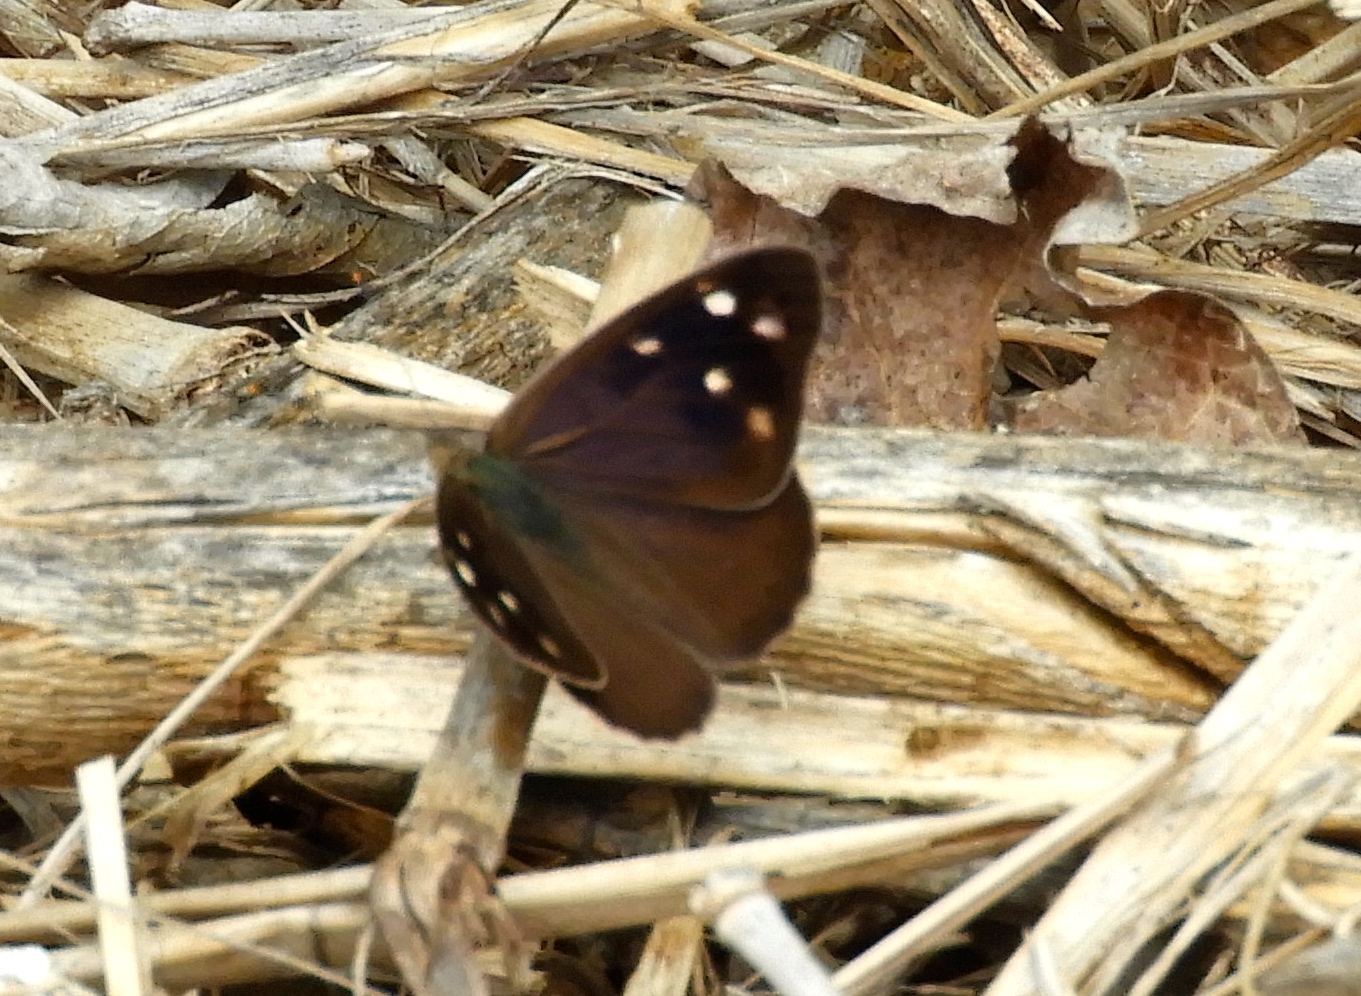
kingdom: Animalia
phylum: Arthropoda
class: Insecta
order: Lepidoptera
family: Nymphalidae
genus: Eunica
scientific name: Eunica
